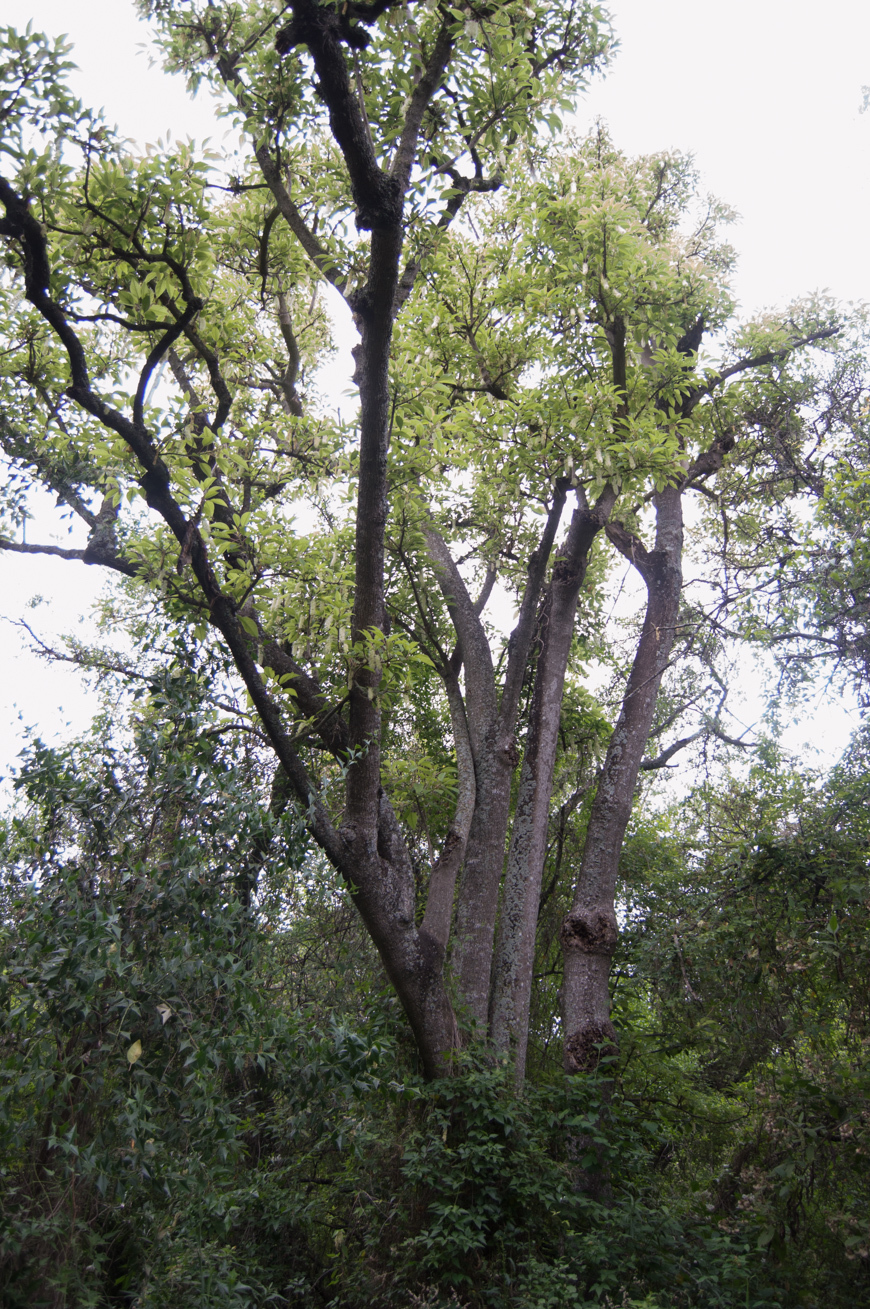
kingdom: Plantae
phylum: Tracheophyta
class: Magnoliopsida
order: Caryophyllales
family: Phytolaccaceae
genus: Phytolacca
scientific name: Phytolacca dioica
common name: Pokeweed
